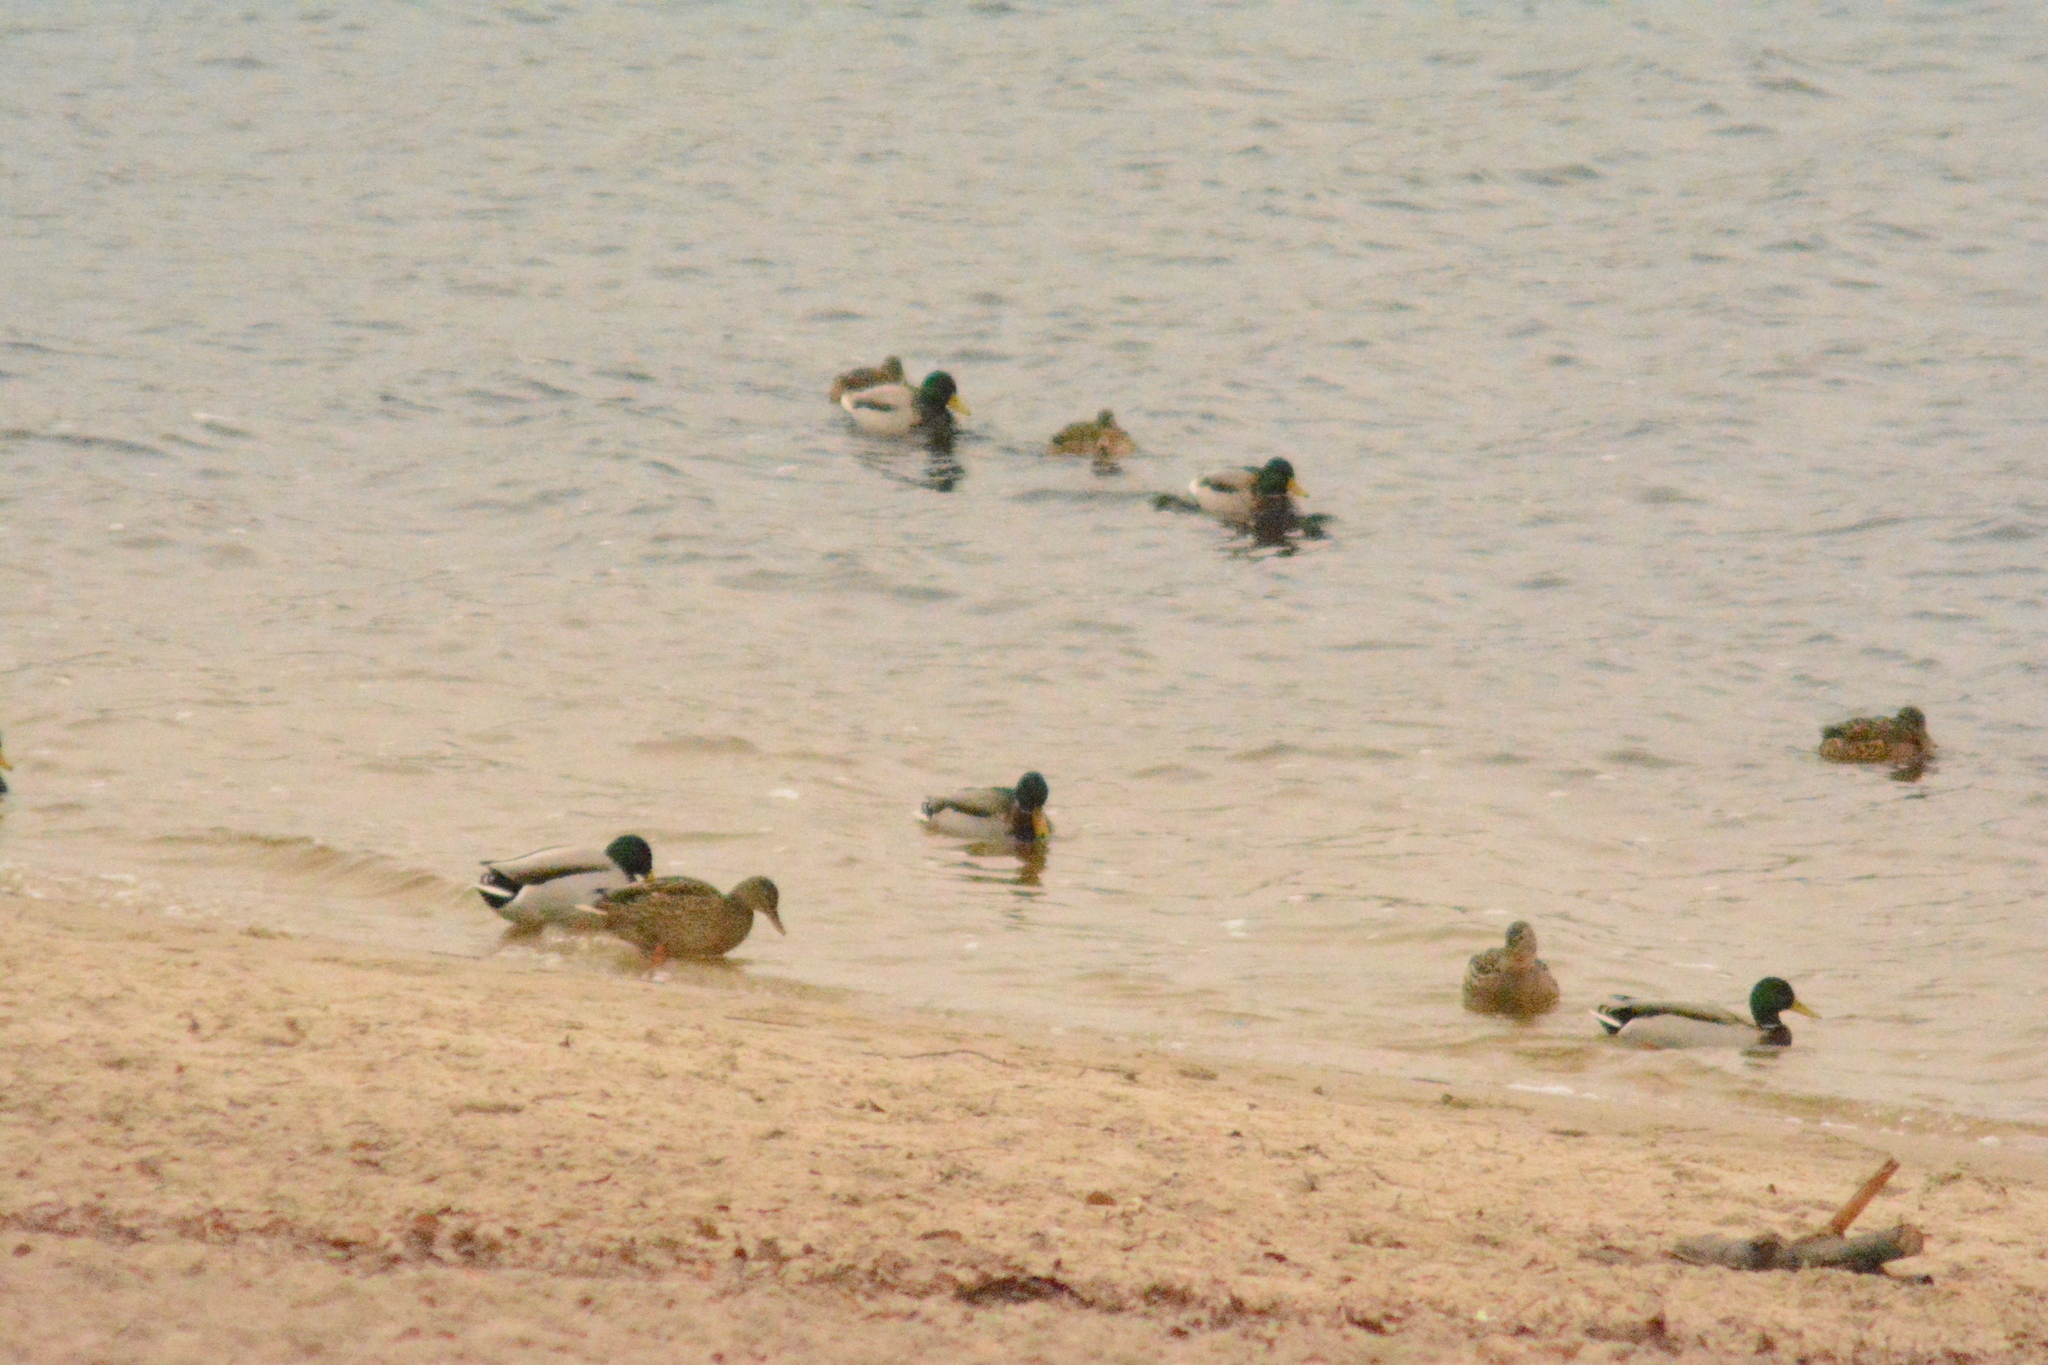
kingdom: Animalia
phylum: Chordata
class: Aves
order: Anseriformes
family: Anatidae
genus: Anas
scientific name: Anas platyrhynchos
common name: Mallard
